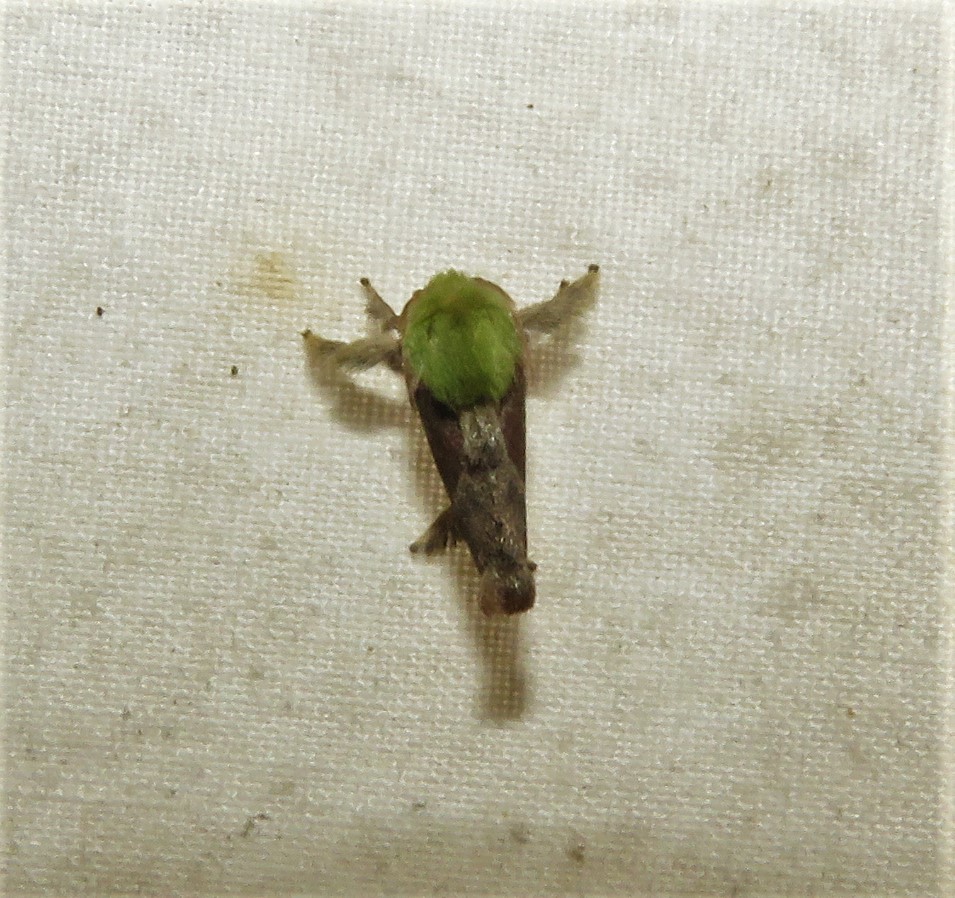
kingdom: Animalia
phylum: Arthropoda
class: Insecta
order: Lepidoptera
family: Limacodidae
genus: Parasa
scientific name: Parasa viridogrisea
